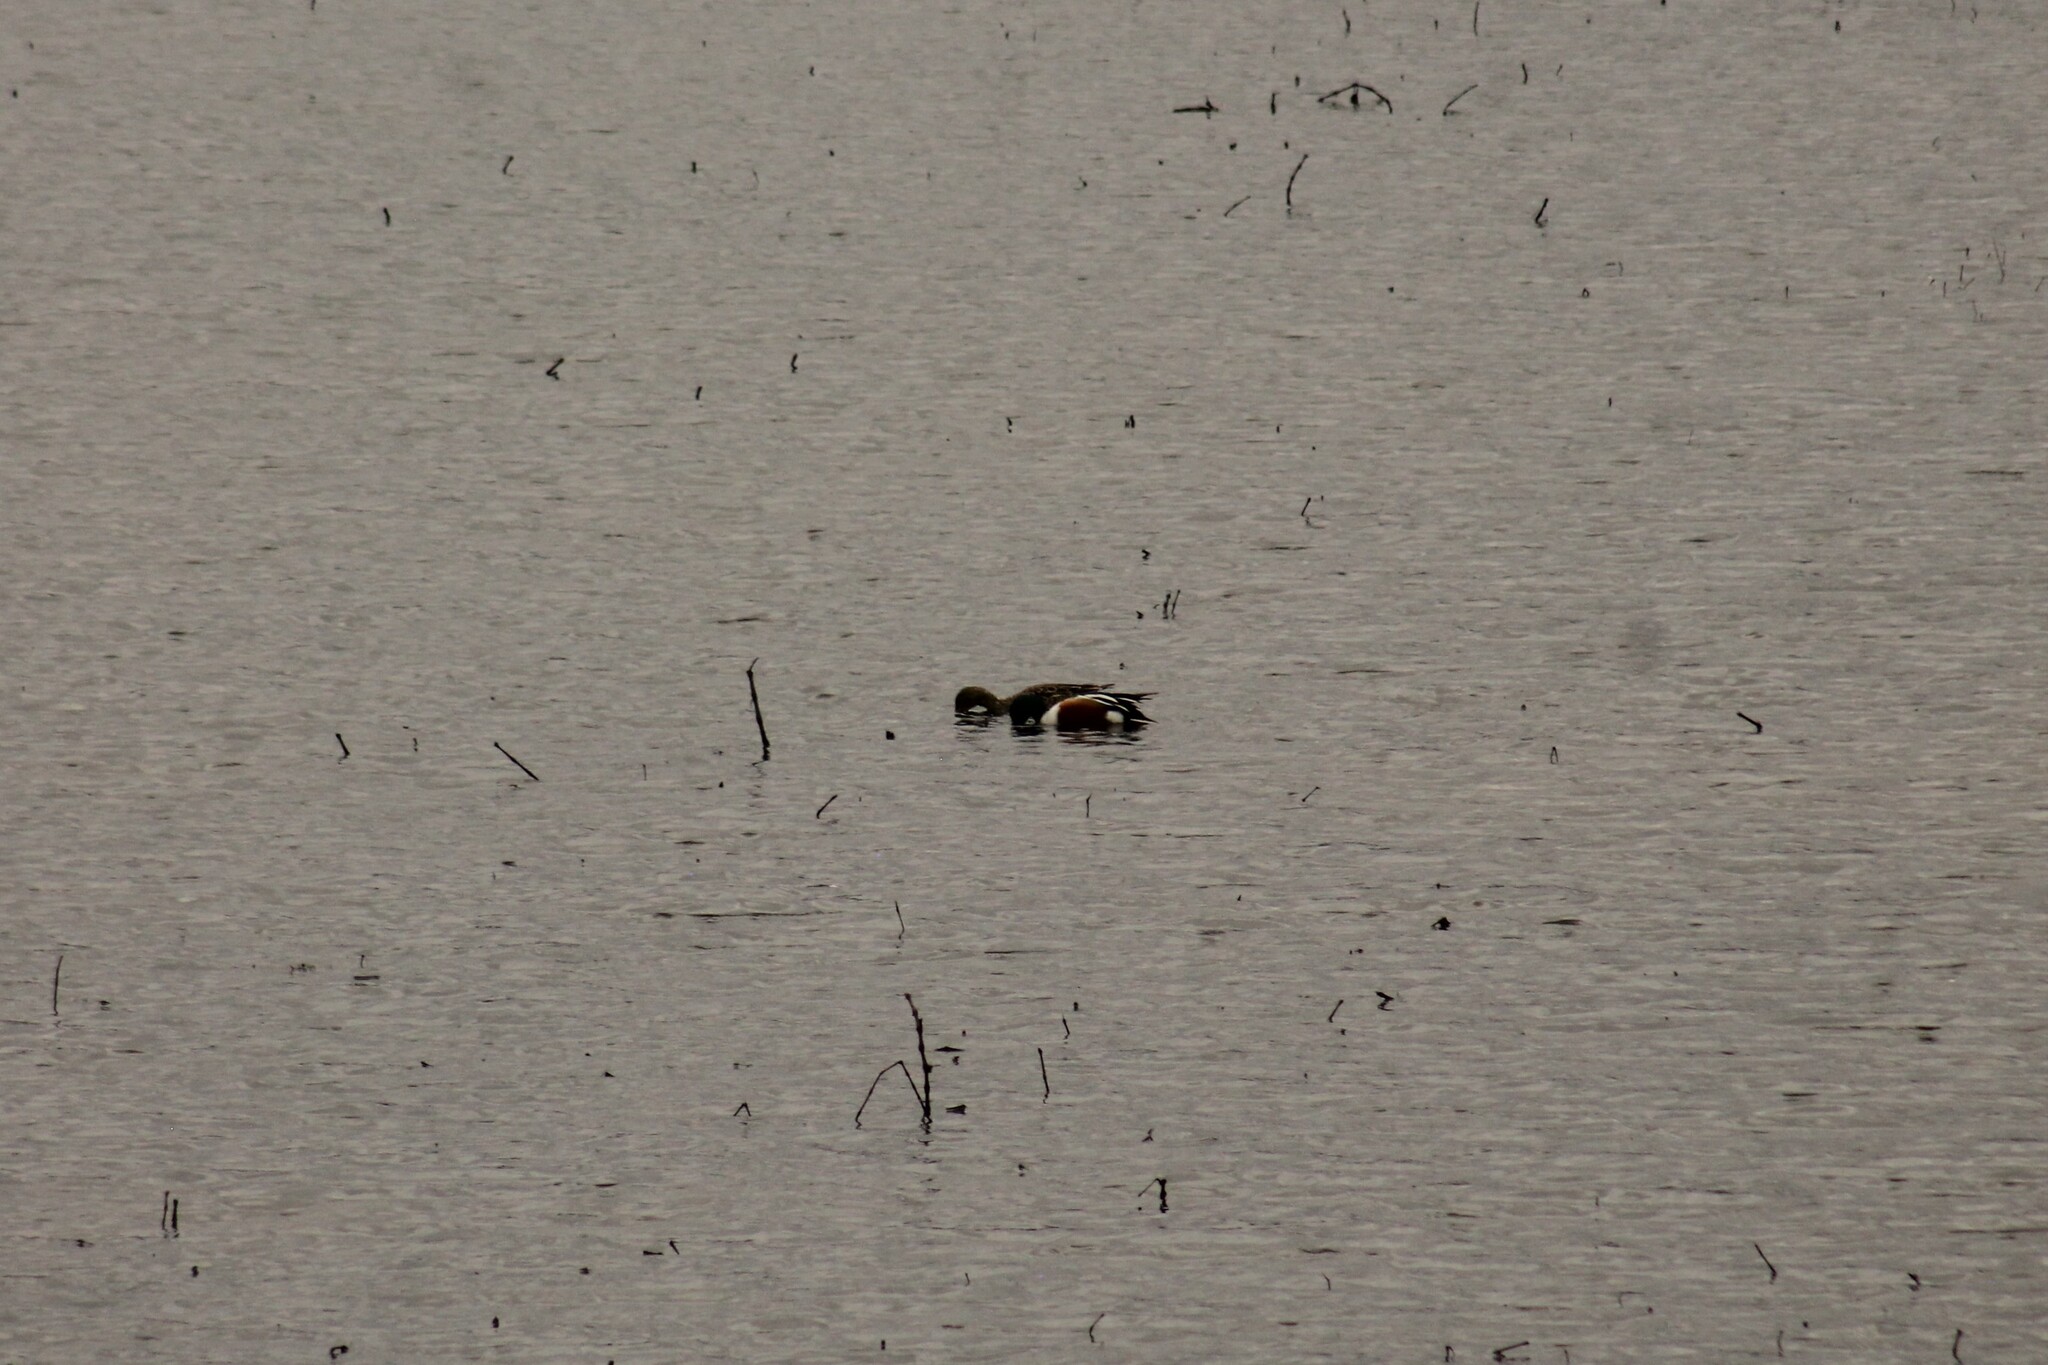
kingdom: Animalia
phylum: Chordata
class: Aves
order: Anseriformes
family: Anatidae
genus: Spatula
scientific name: Spatula clypeata
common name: Northern shoveler
